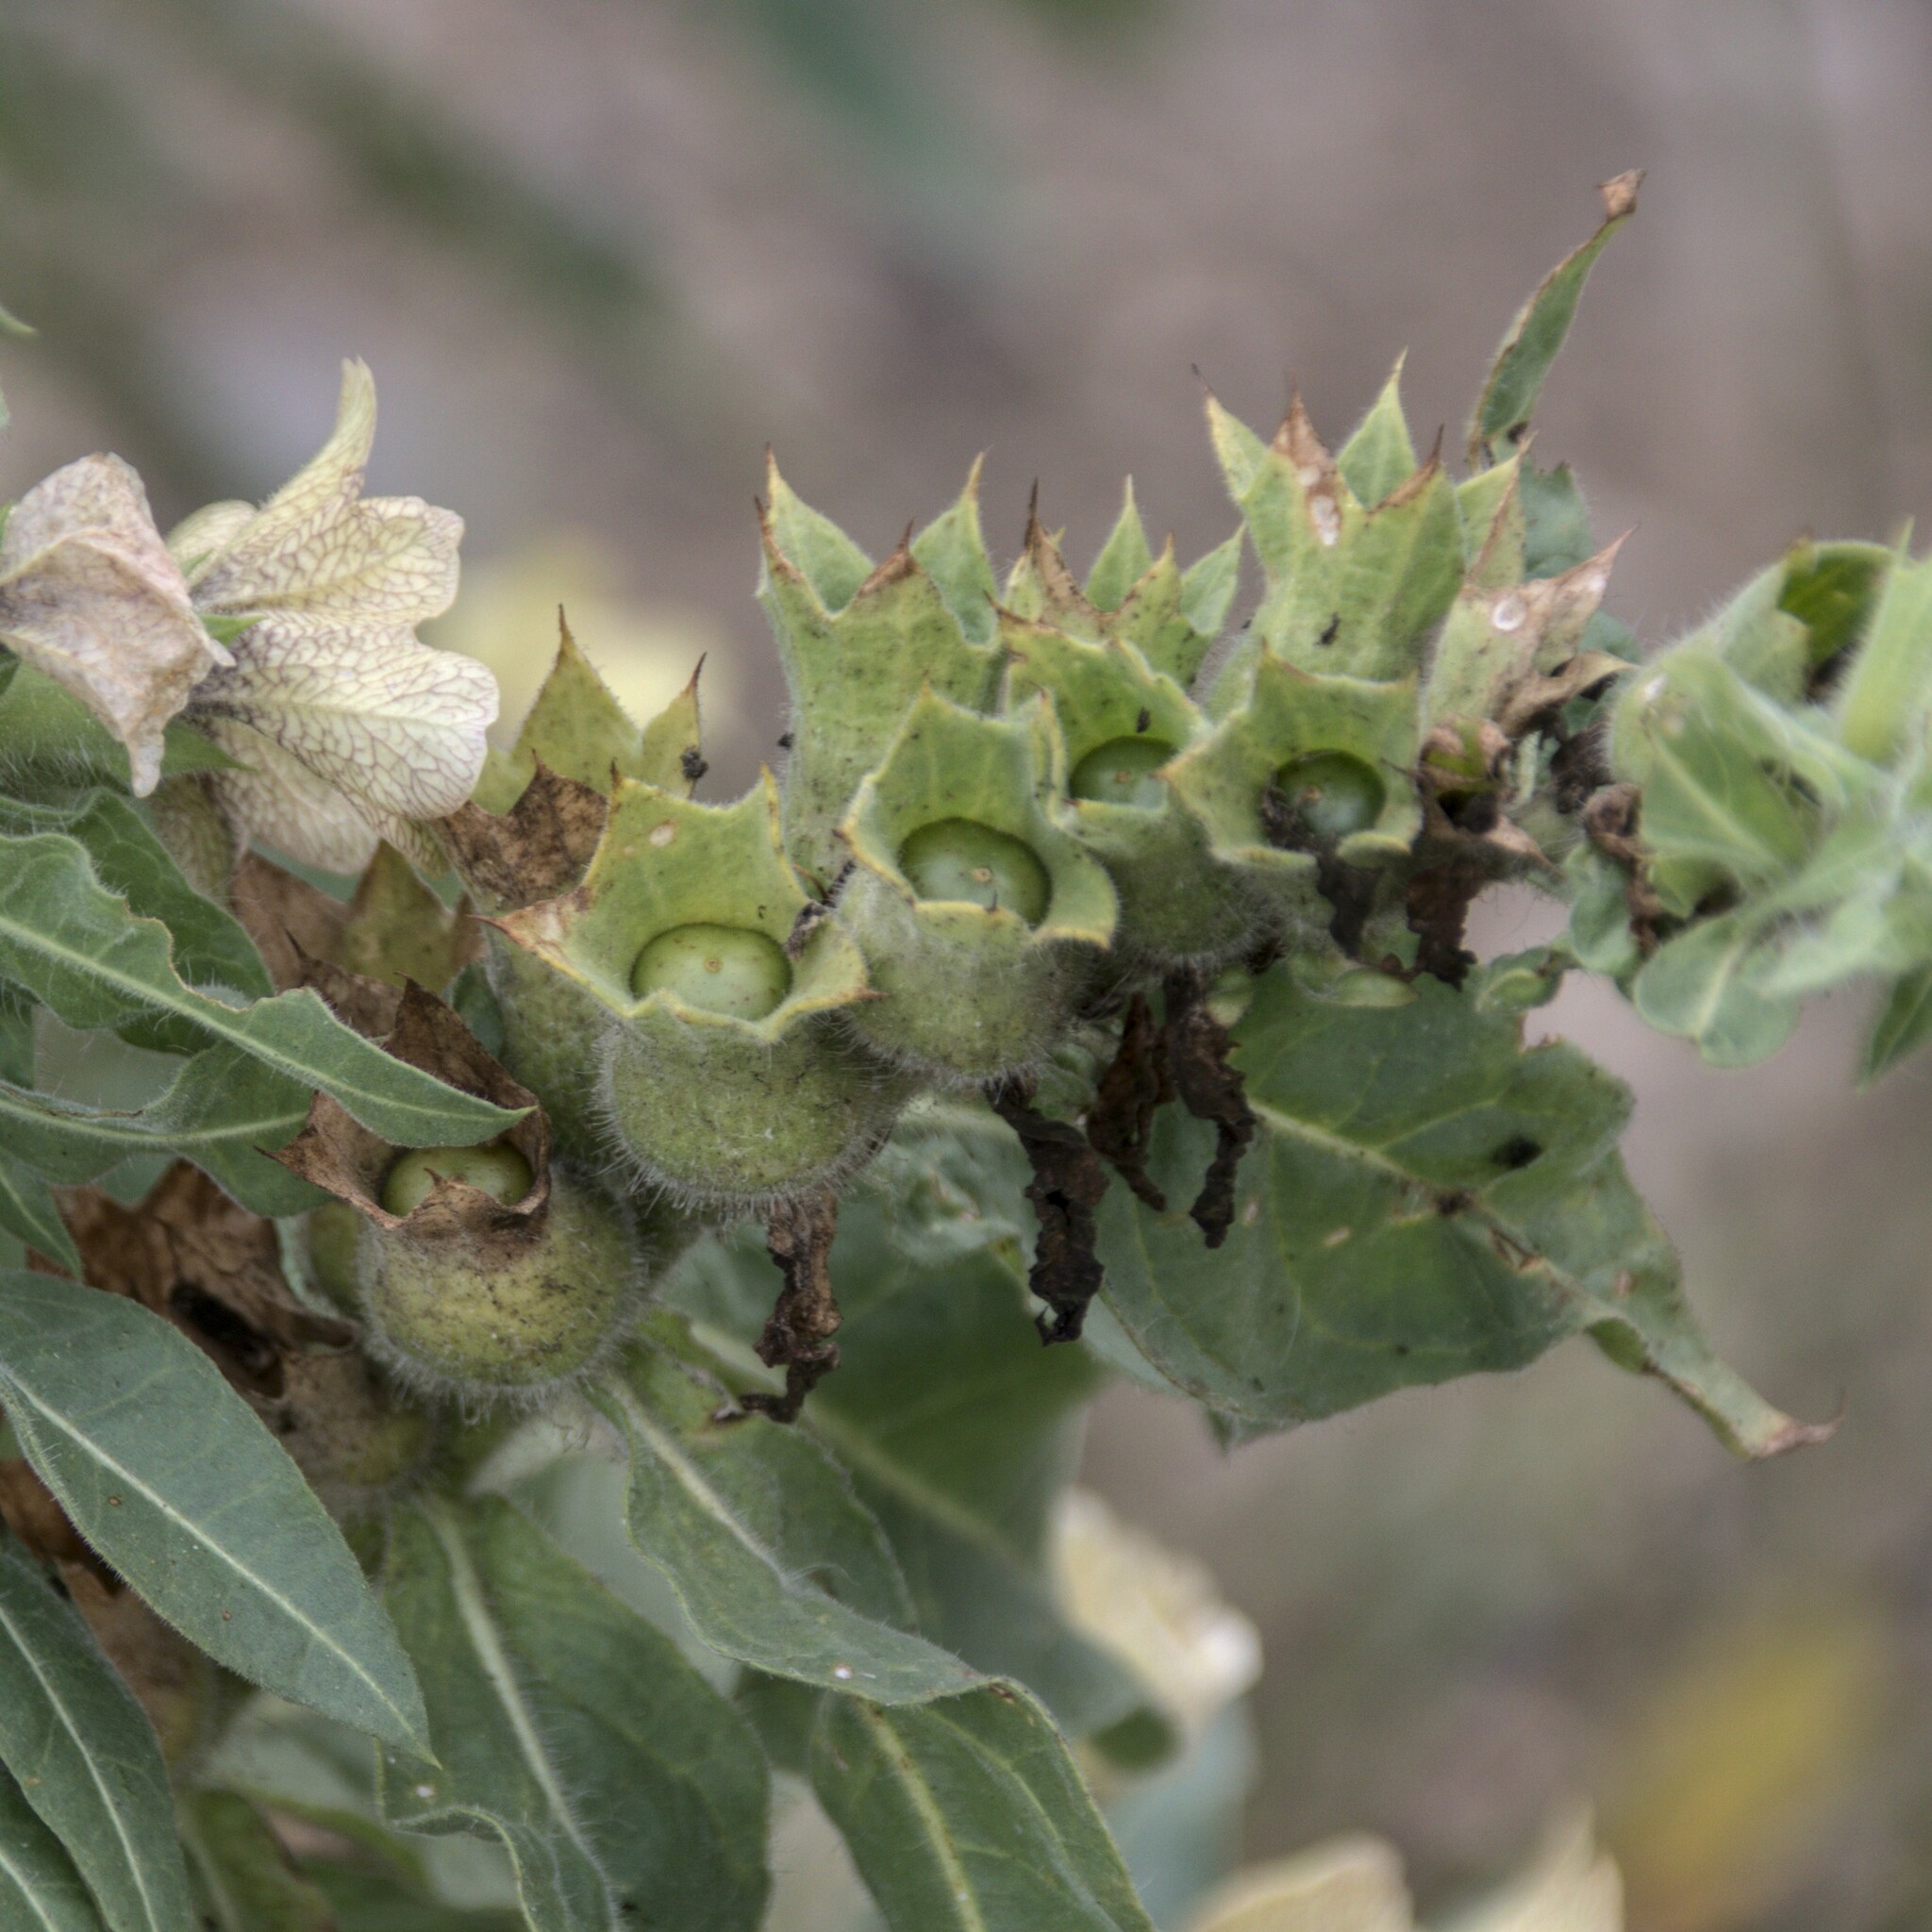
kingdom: Plantae
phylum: Tracheophyta
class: Magnoliopsida
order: Solanales
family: Solanaceae
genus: Hyoscyamus
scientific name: Hyoscyamus niger
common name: Henbane
